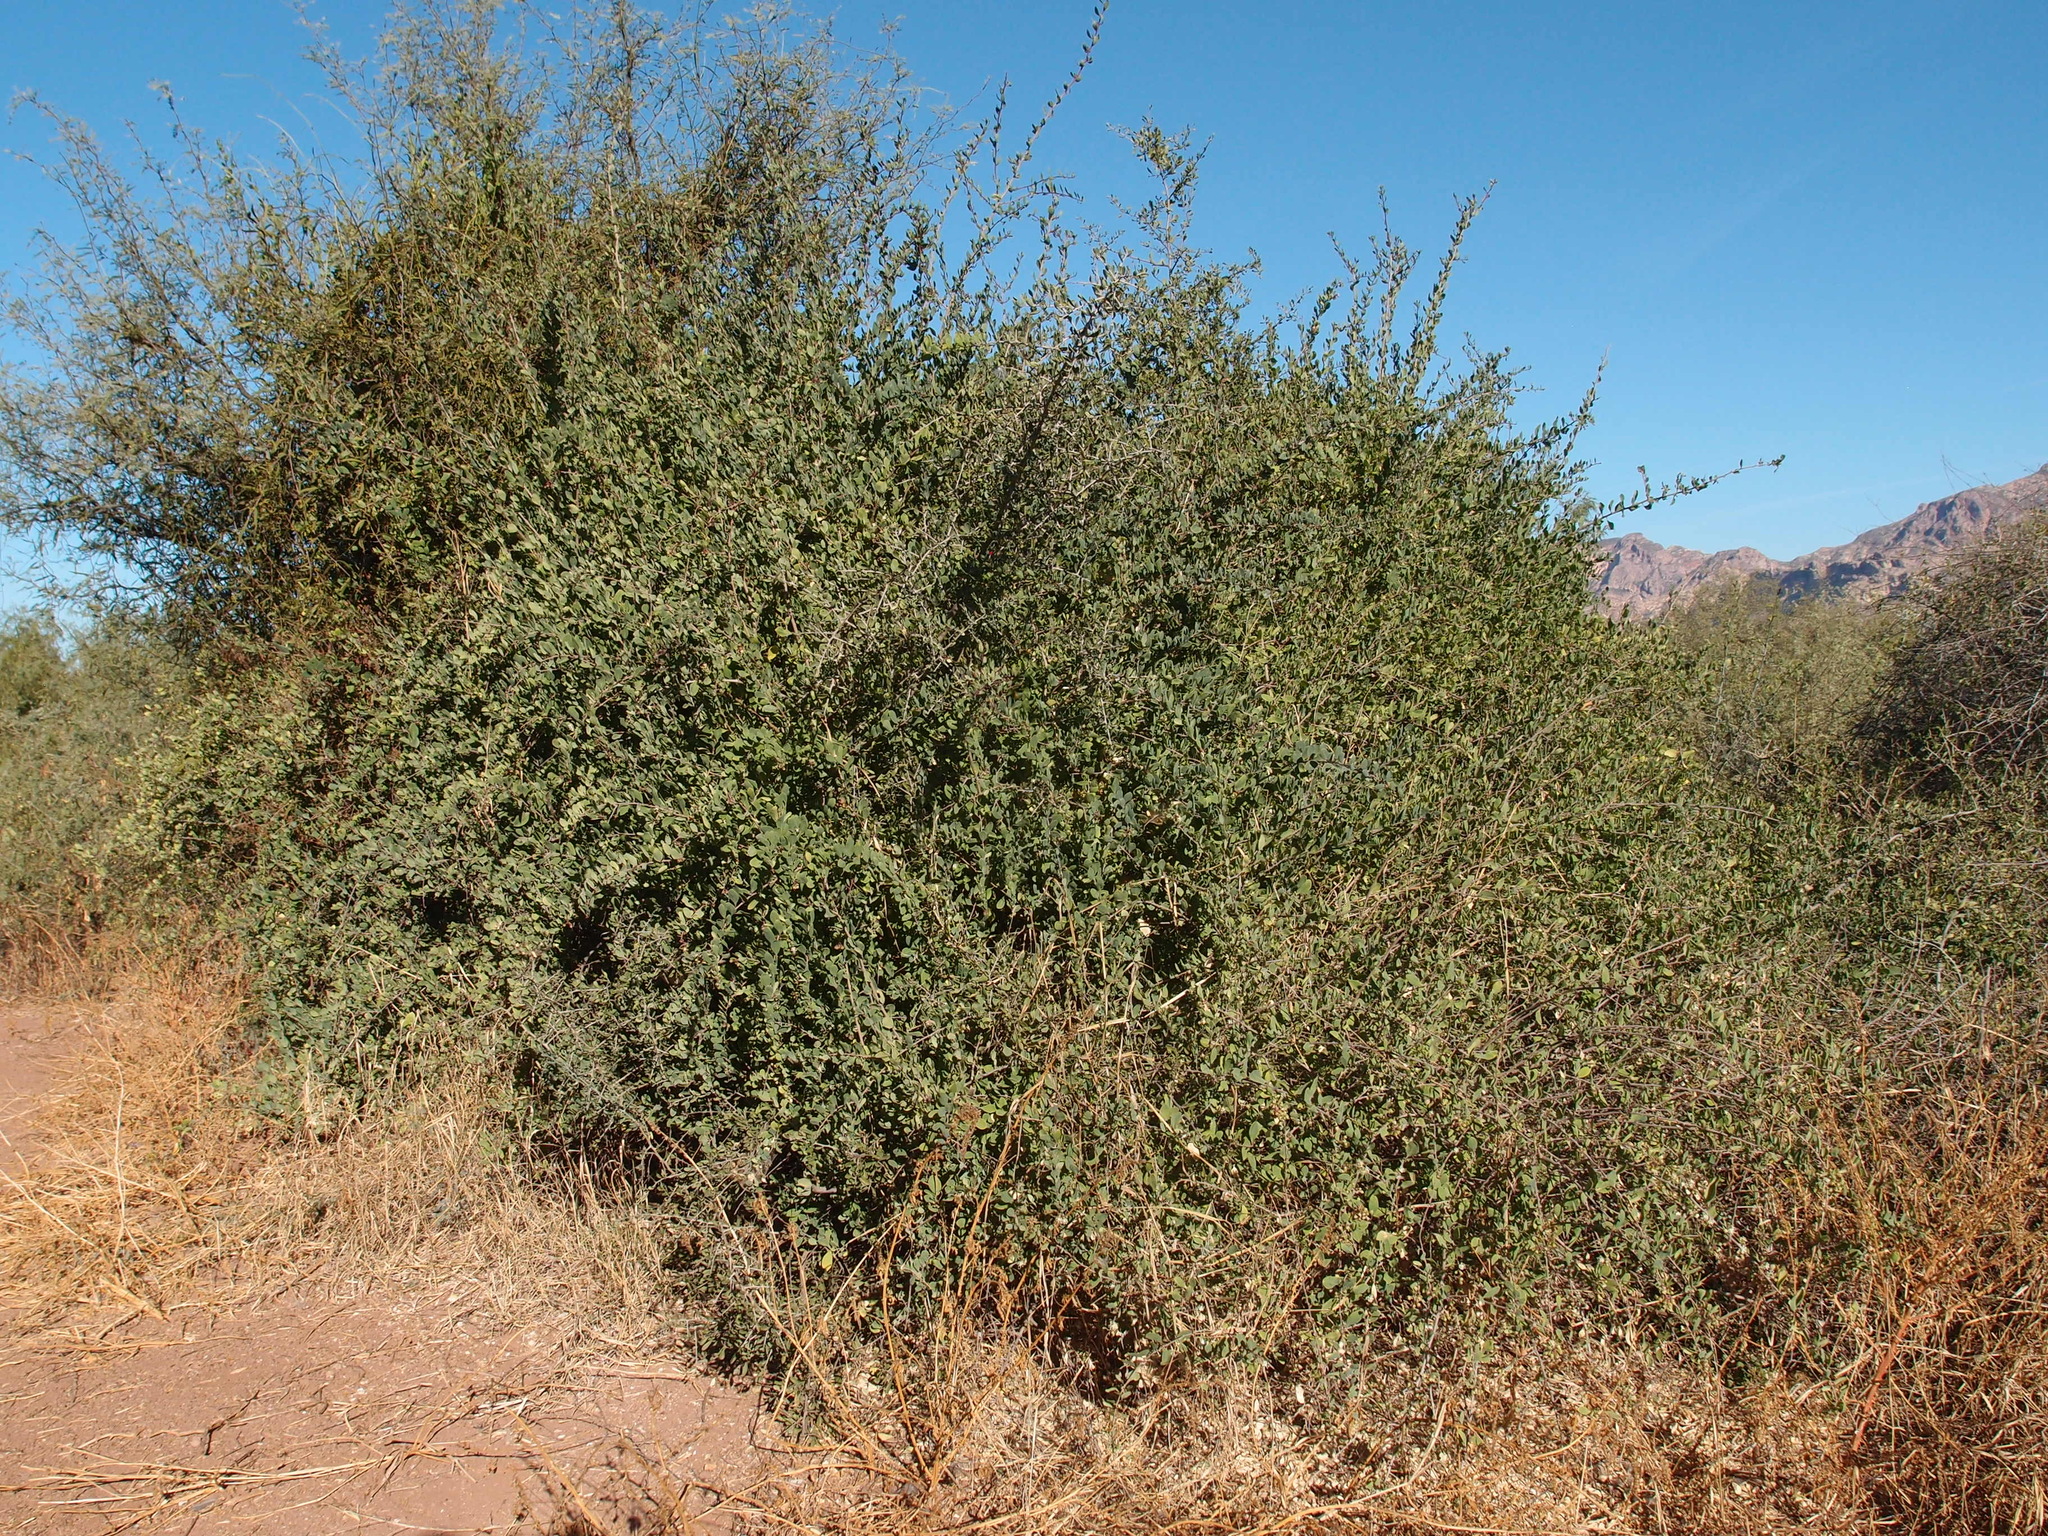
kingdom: Plantae
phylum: Tracheophyta
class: Magnoliopsida
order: Caryophyllales
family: Stegnospermataceae
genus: Stegnosperma
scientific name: Stegnosperma halimifolium
